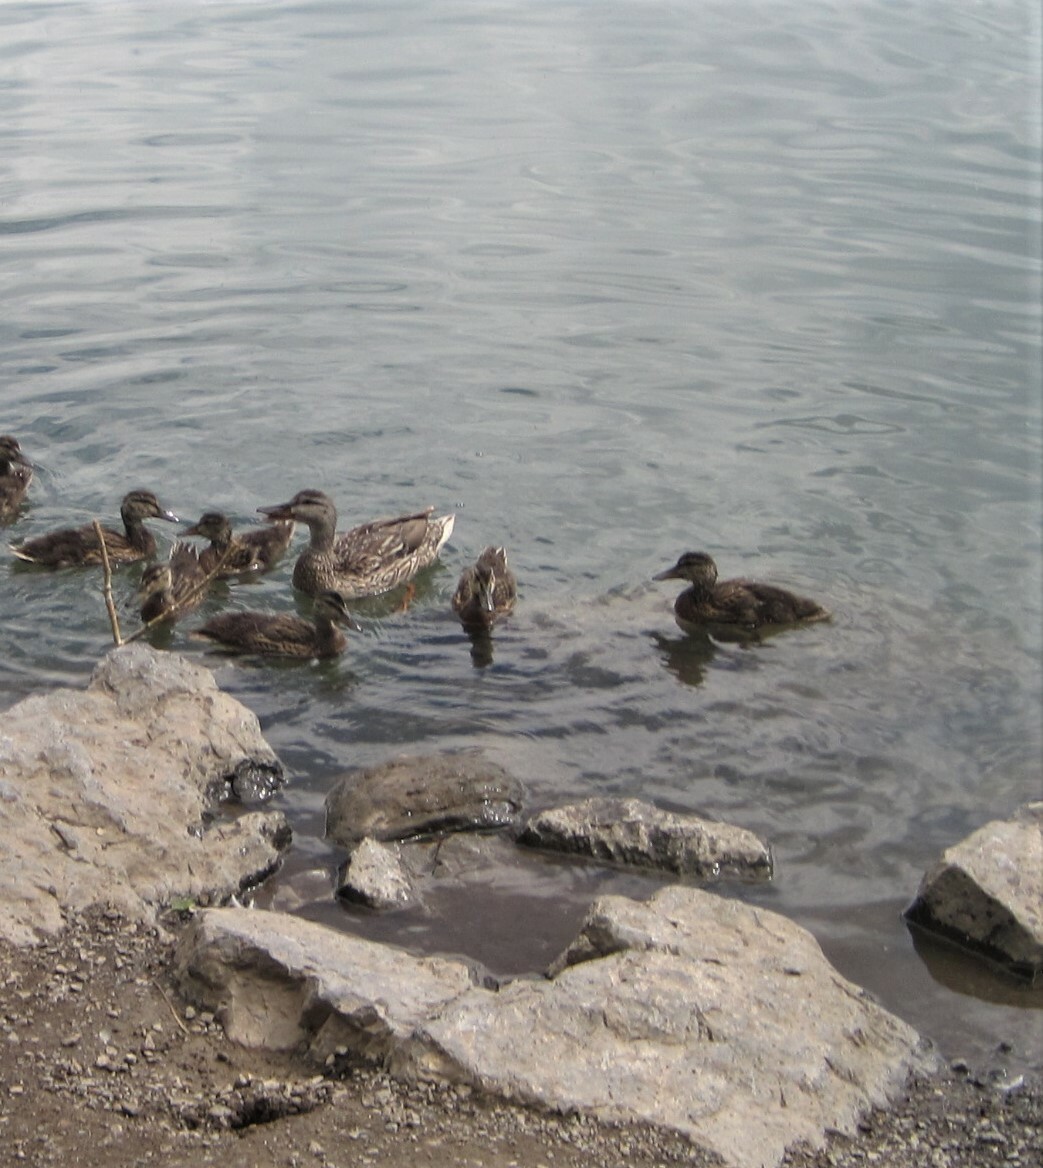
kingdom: Animalia
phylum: Chordata
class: Aves
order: Anseriformes
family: Anatidae
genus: Anas
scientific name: Anas platyrhynchos
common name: Mallard
